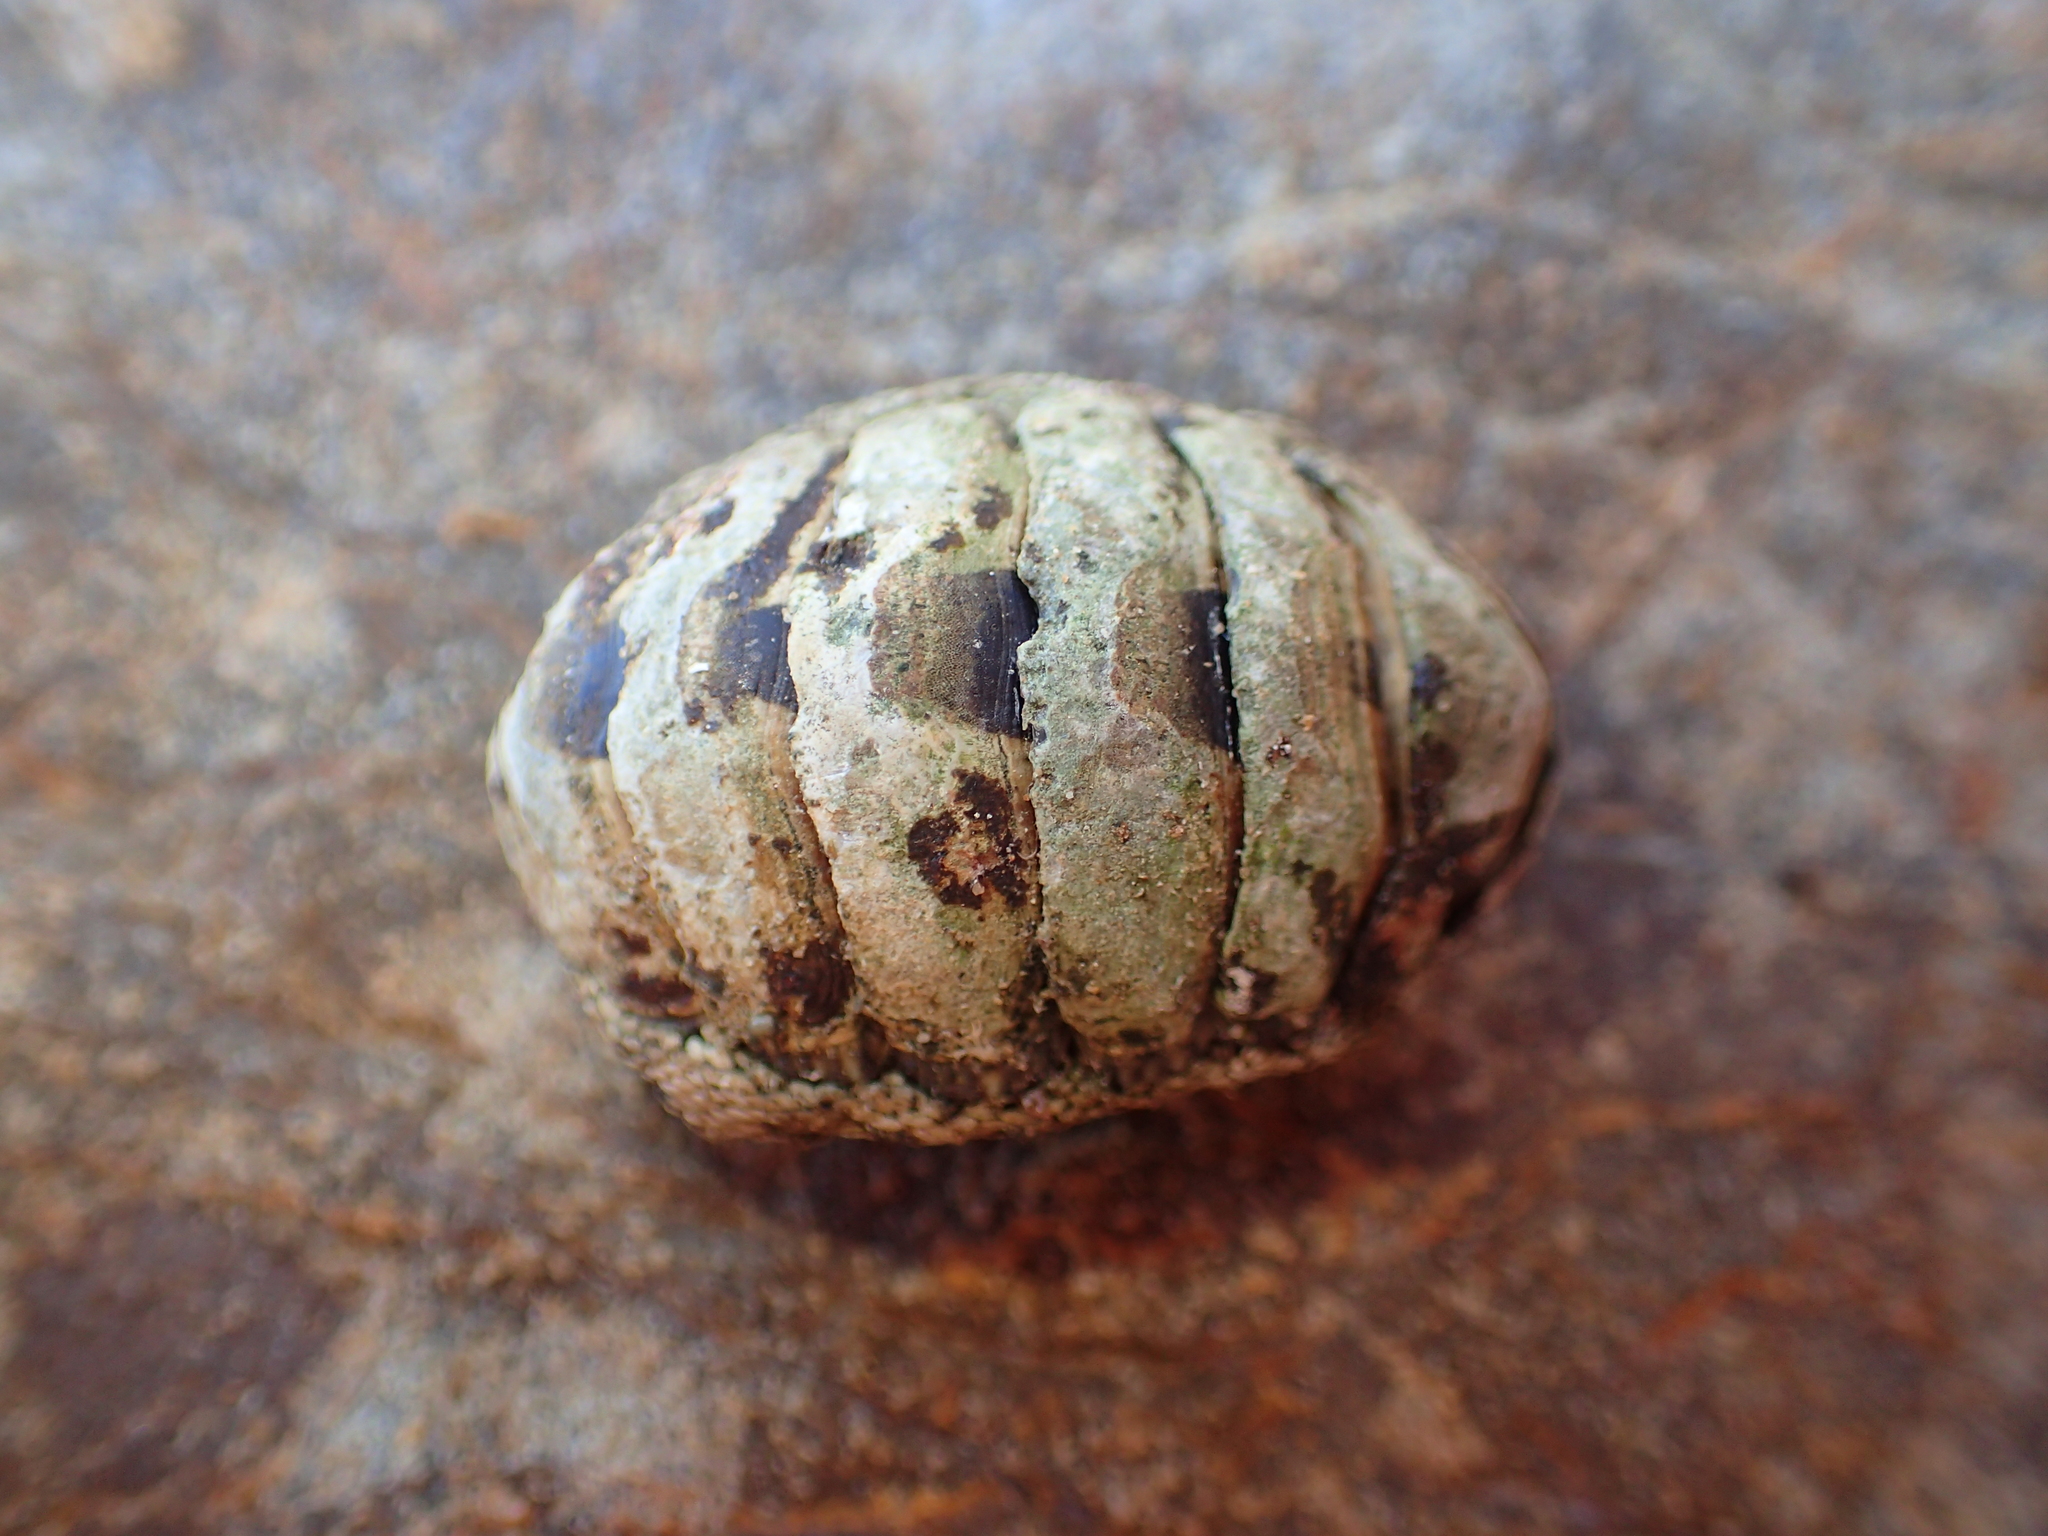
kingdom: Animalia
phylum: Mollusca
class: Polyplacophora
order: Chitonida
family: Chitonidae
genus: Sypharochiton
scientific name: Sypharochiton pelliserpentis
